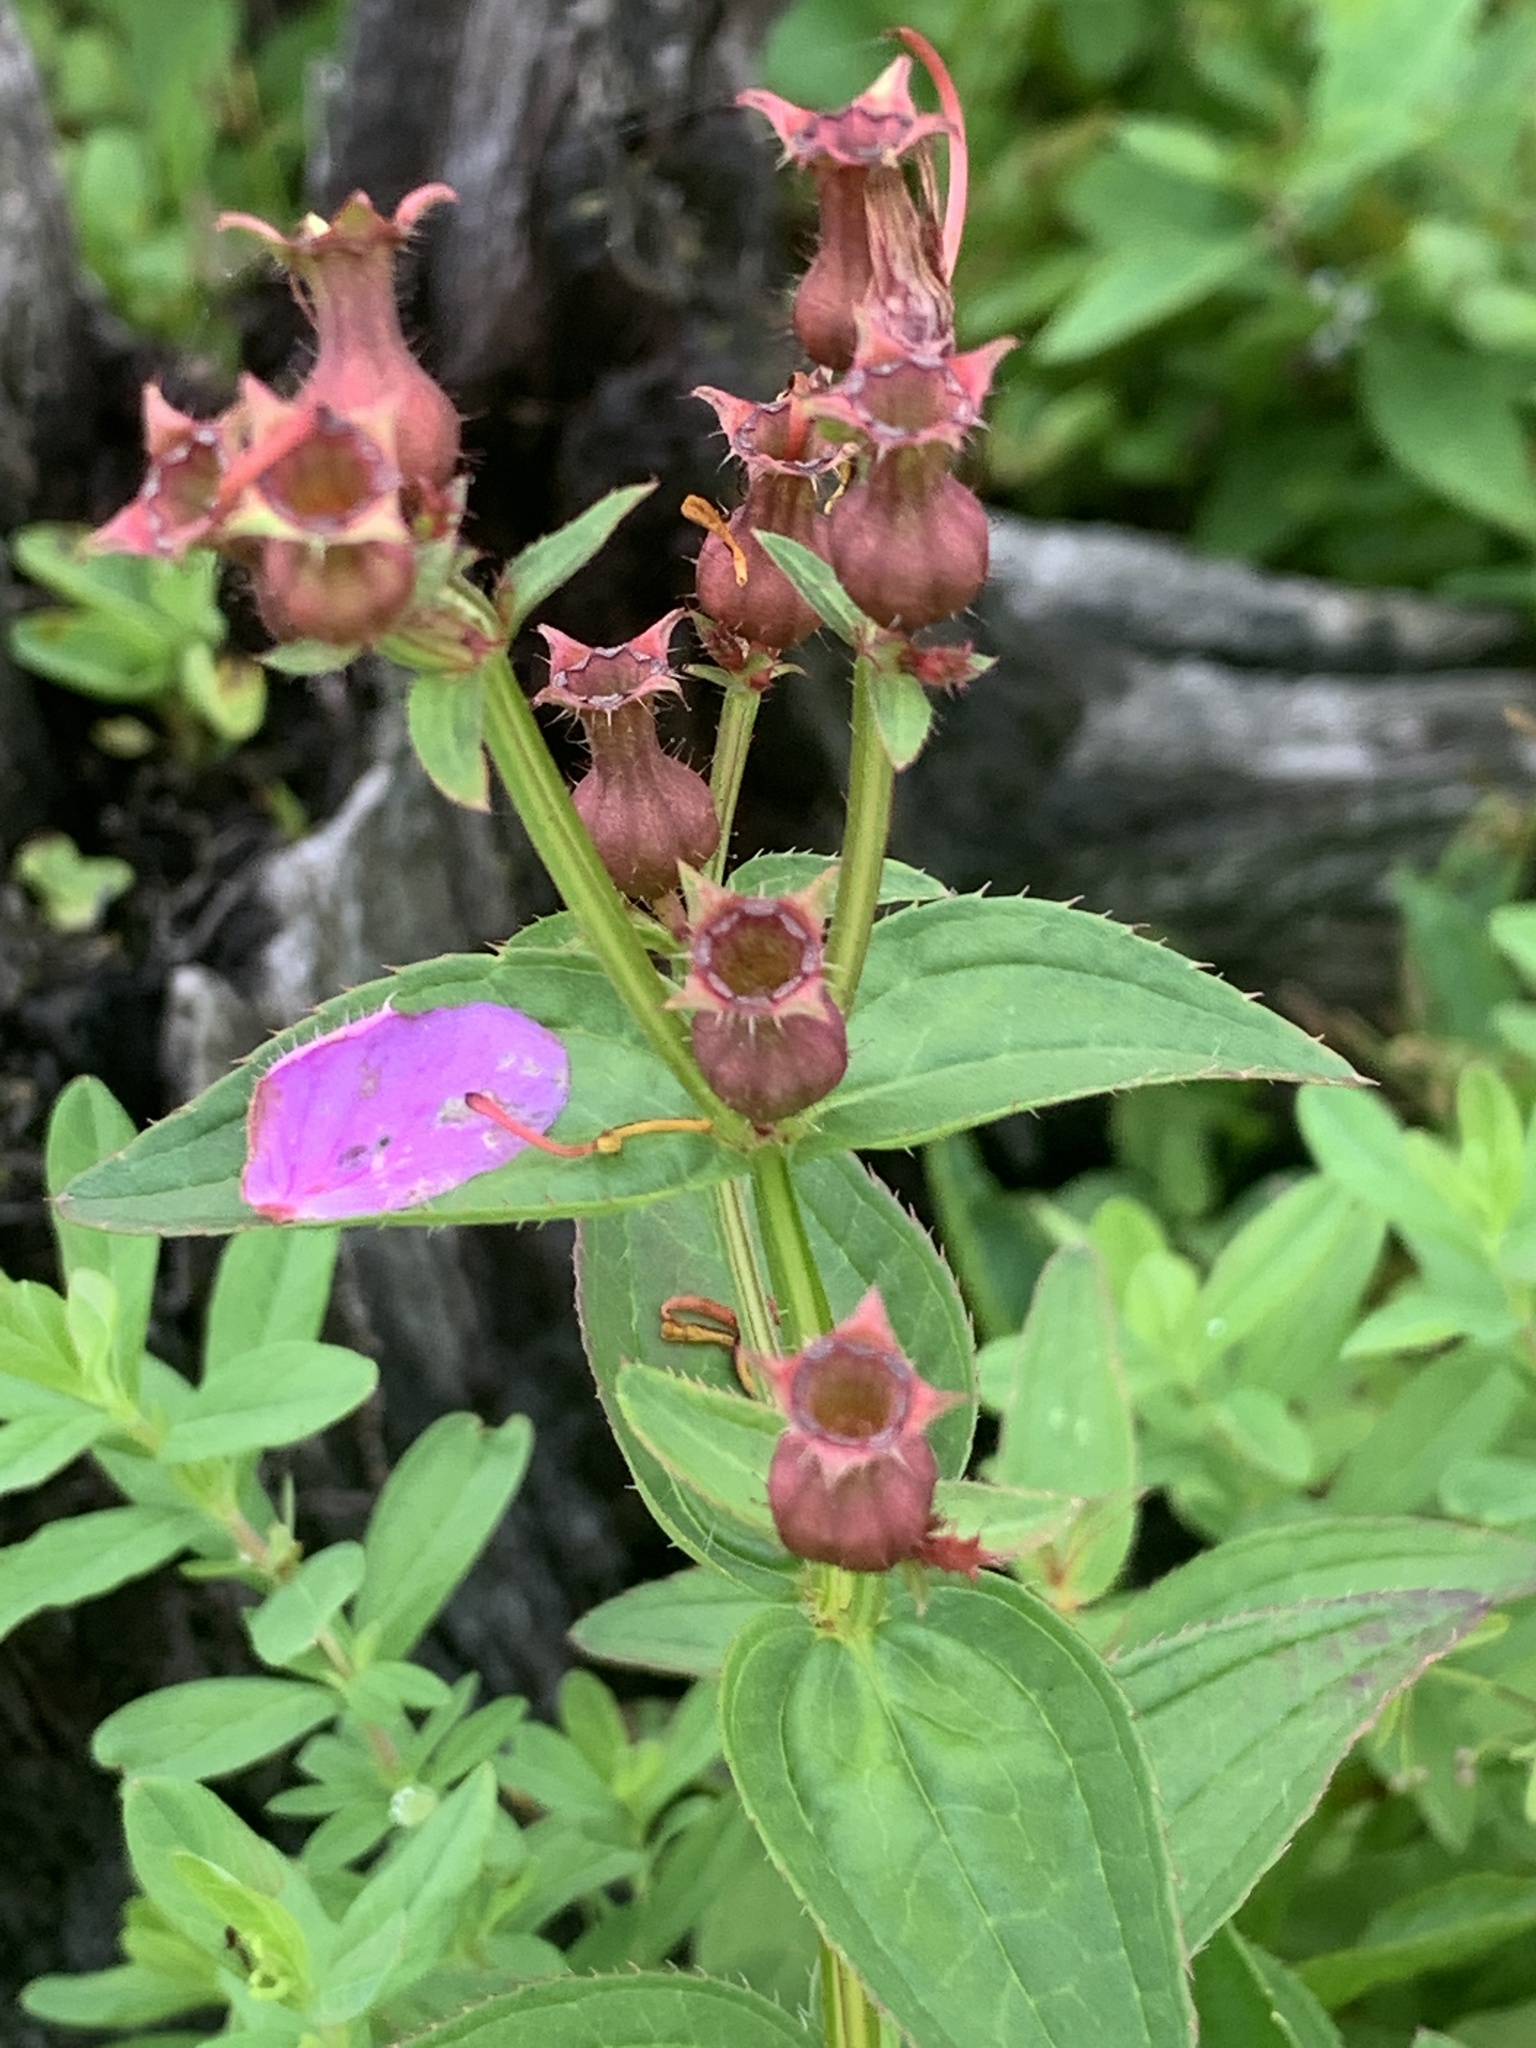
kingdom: Plantae
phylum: Tracheophyta
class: Magnoliopsida
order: Myrtales
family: Melastomataceae
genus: Rhexia
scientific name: Rhexia virginica
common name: Common meadow beauty
